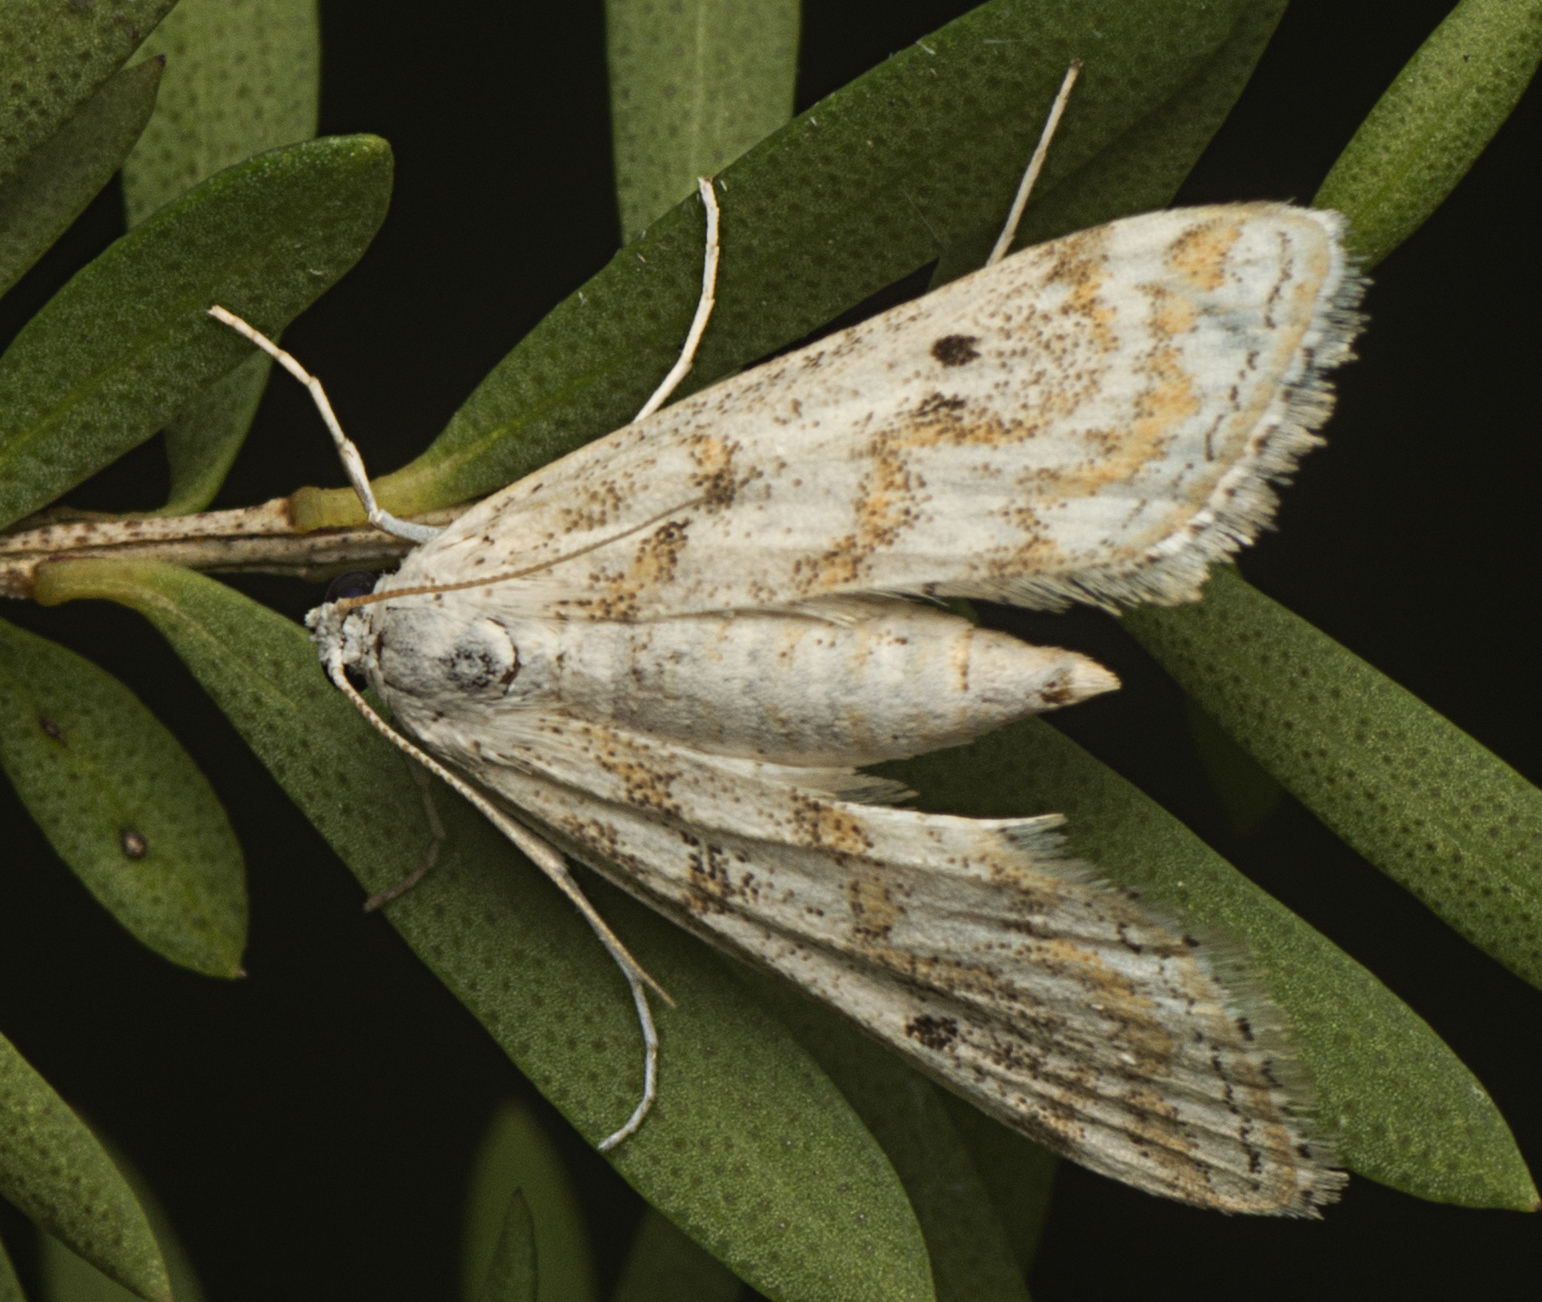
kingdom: Animalia
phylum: Arthropoda
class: Insecta
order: Lepidoptera
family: Crambidae
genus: Parapoynx
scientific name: Parapoynx diminutalis
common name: Hydrilla leafcutter
